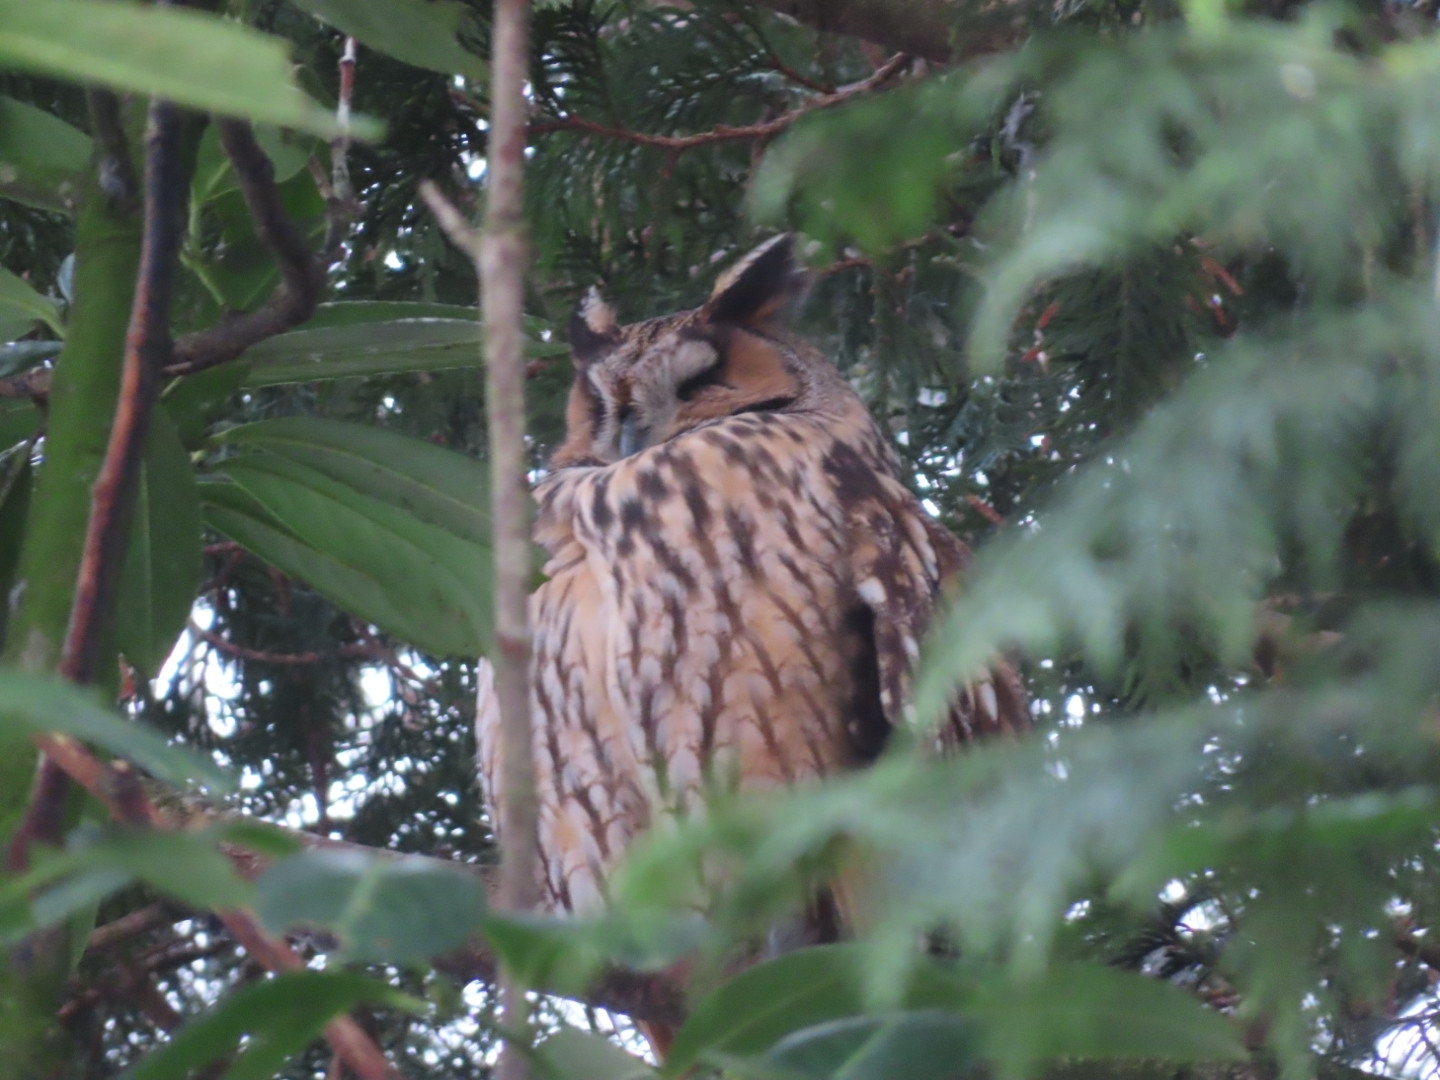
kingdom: Animalia
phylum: Chordata
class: Aves
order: Strigiformes
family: Strigidae
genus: Asio
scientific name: Asio otus
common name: Long-eared owl
